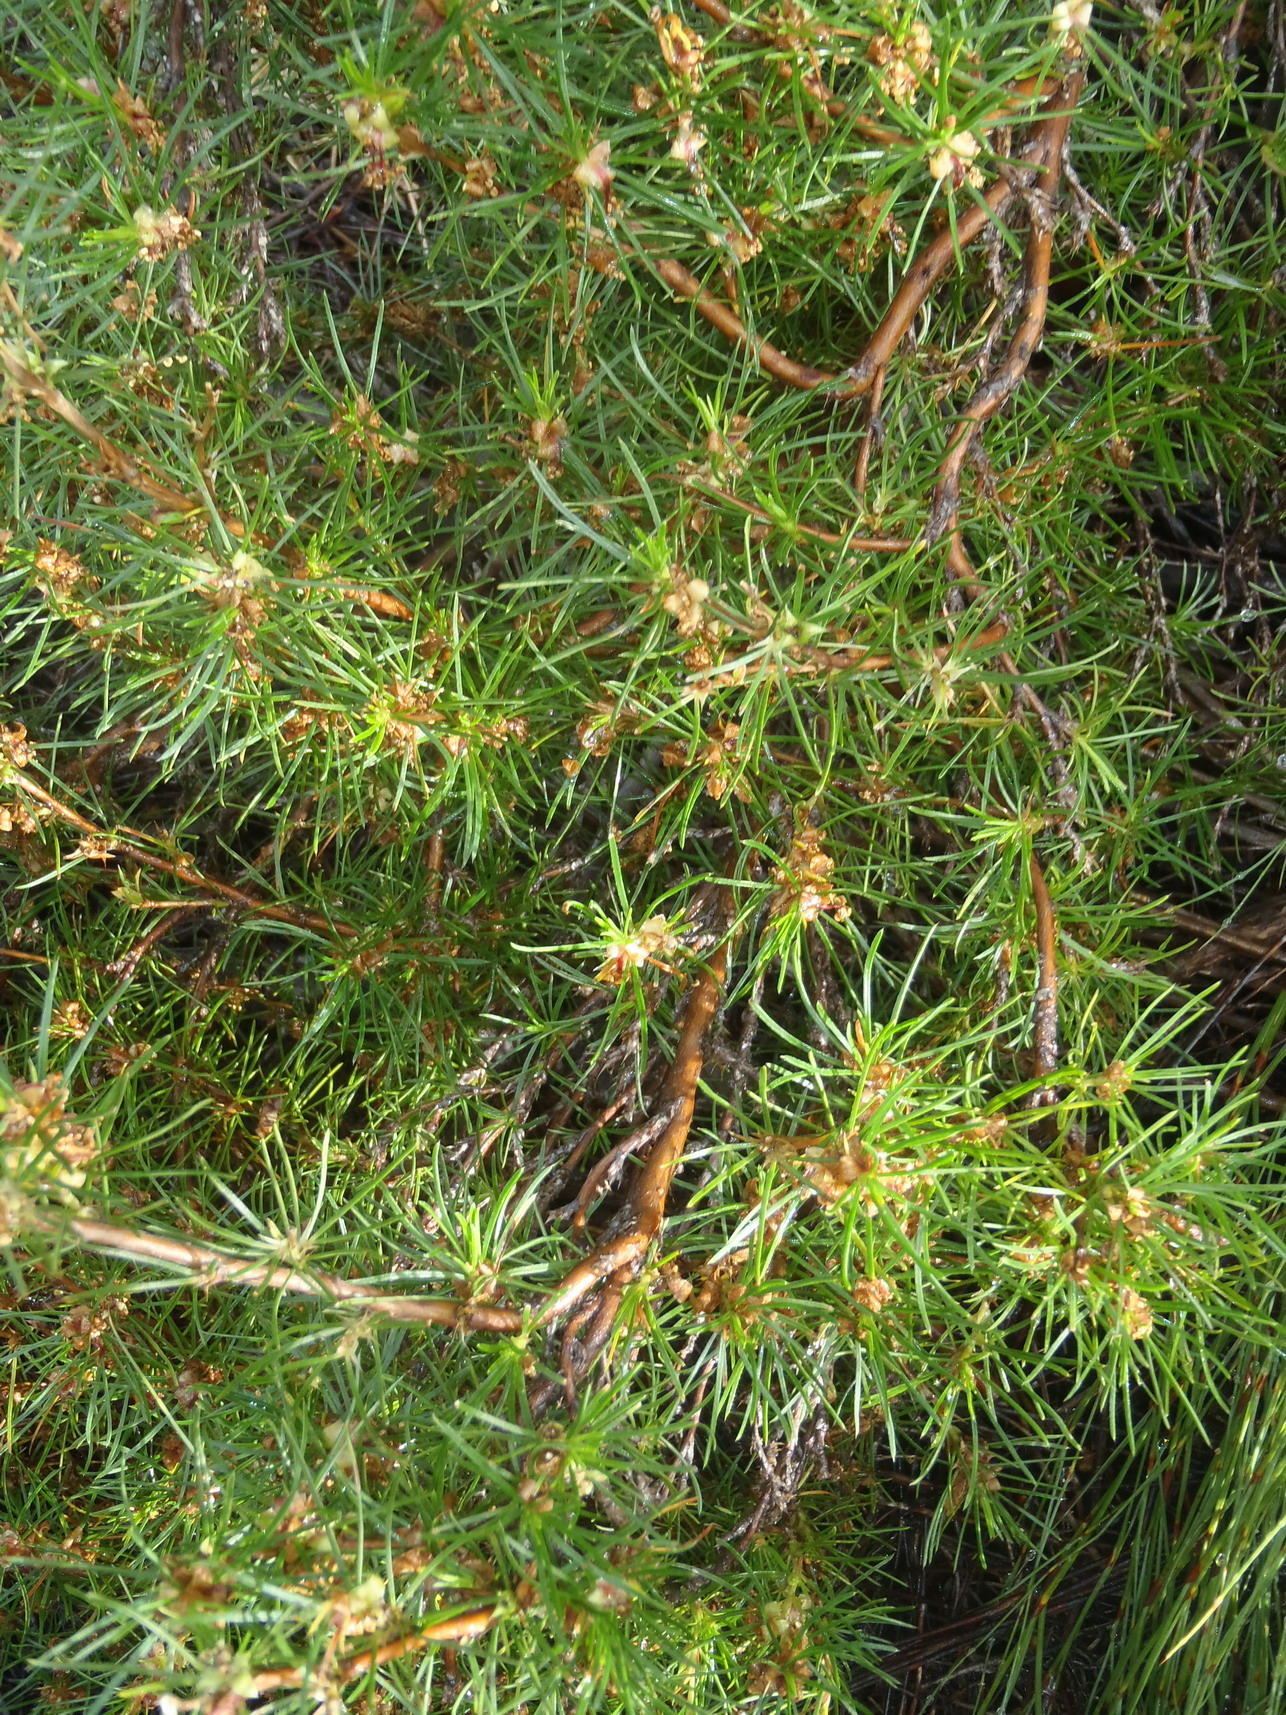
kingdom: Plantae
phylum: Tracheophyta
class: Magnoliopsida
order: Rosales
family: Rosaceae
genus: Cliffortia
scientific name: Cliffortia burchellii
